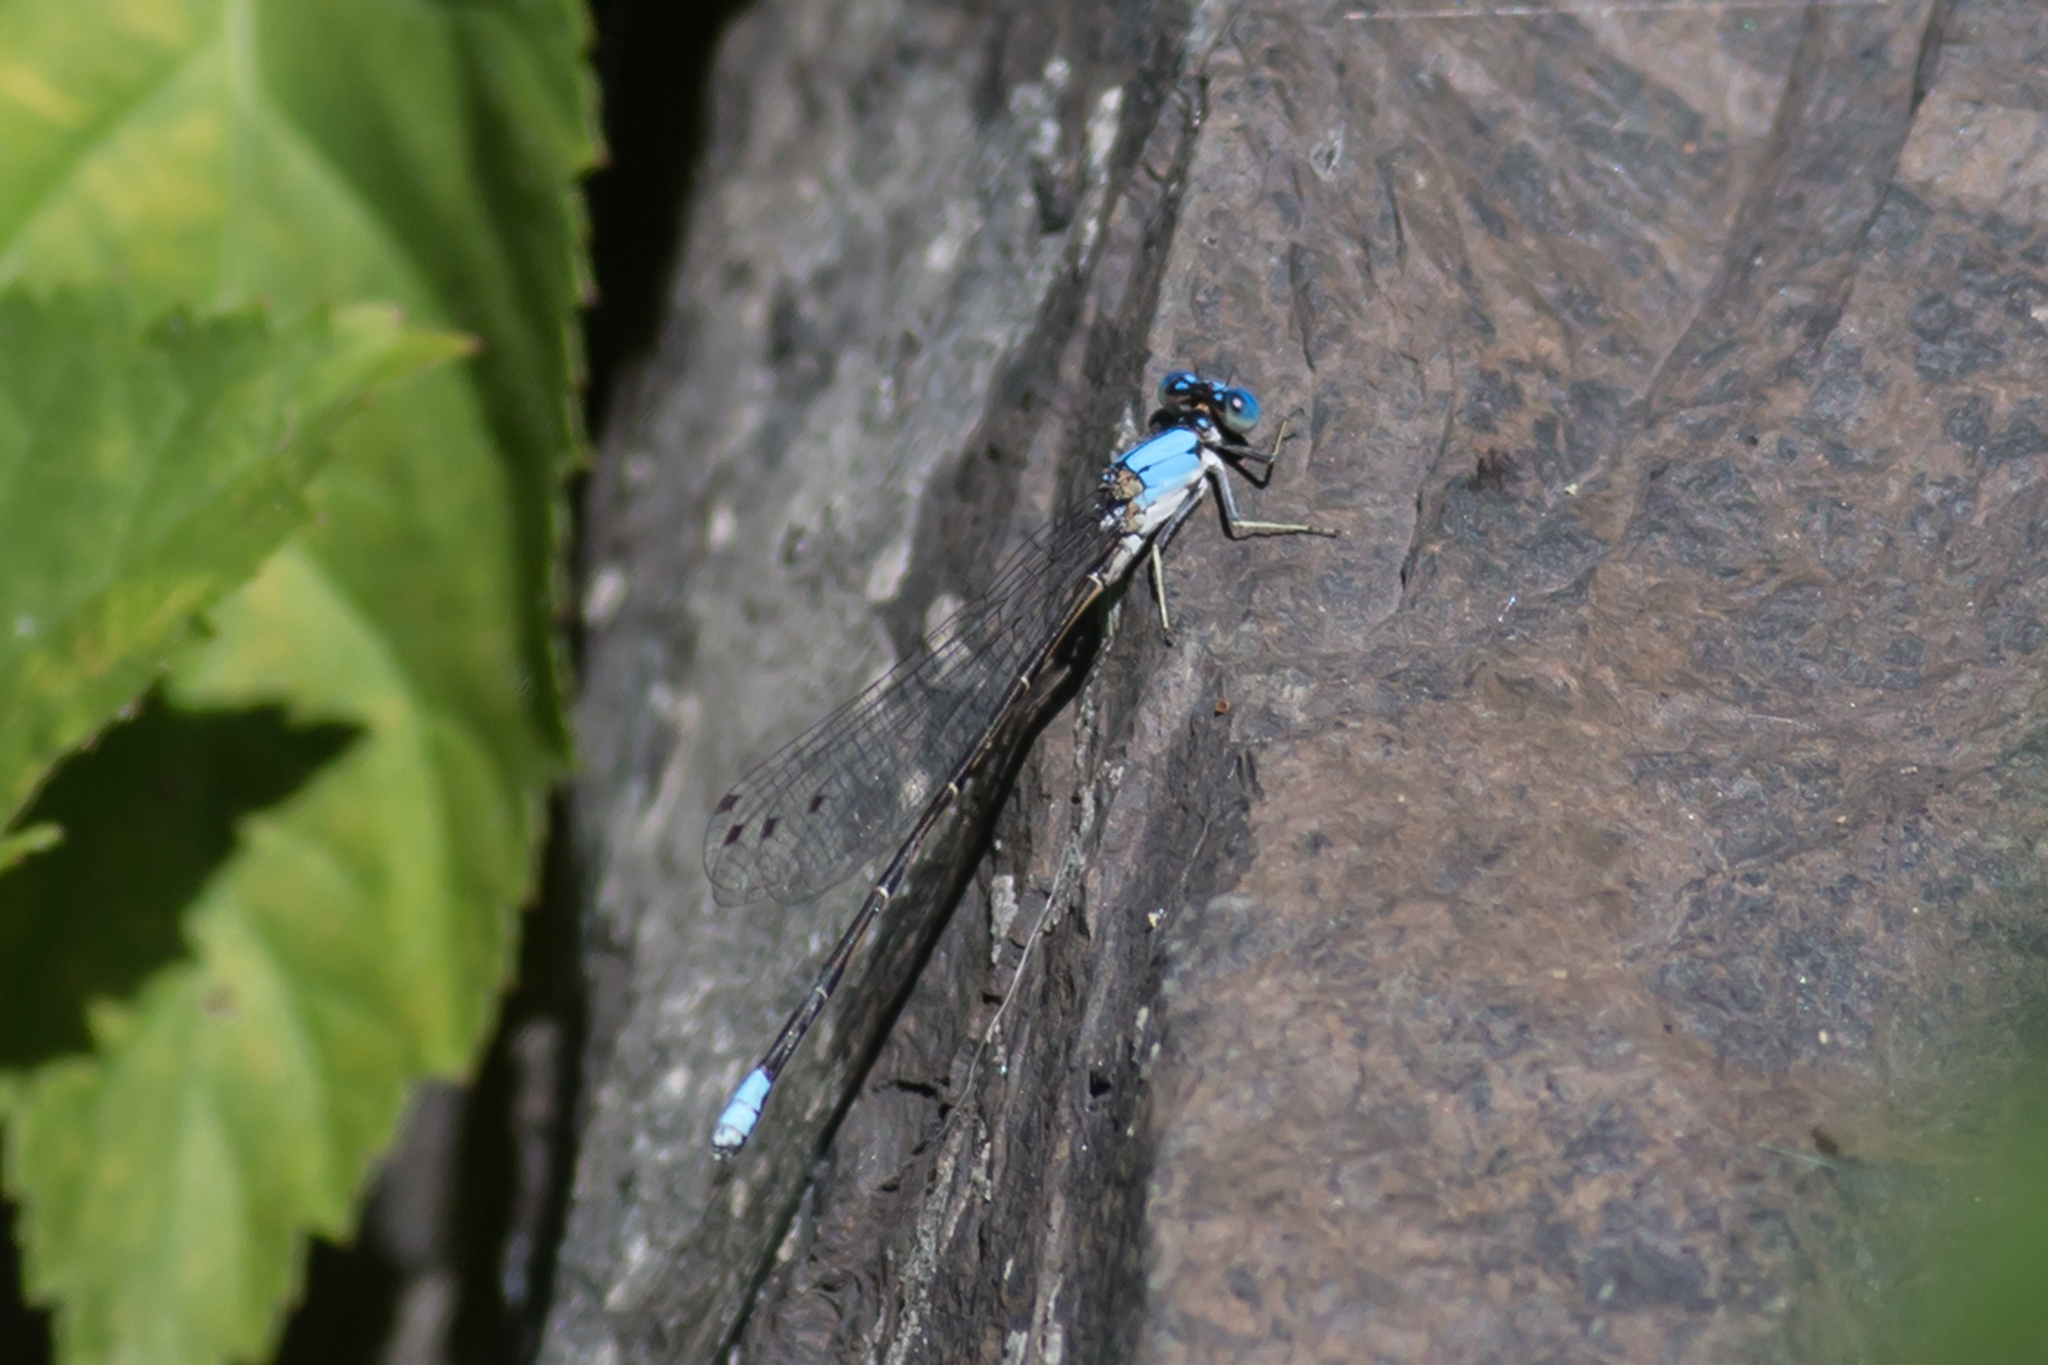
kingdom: Animalia
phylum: Arthropoda
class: Insecta
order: Odonata
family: Coenagrionidae
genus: Argia
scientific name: Argia apicalis
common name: Blue-fronted dancer
